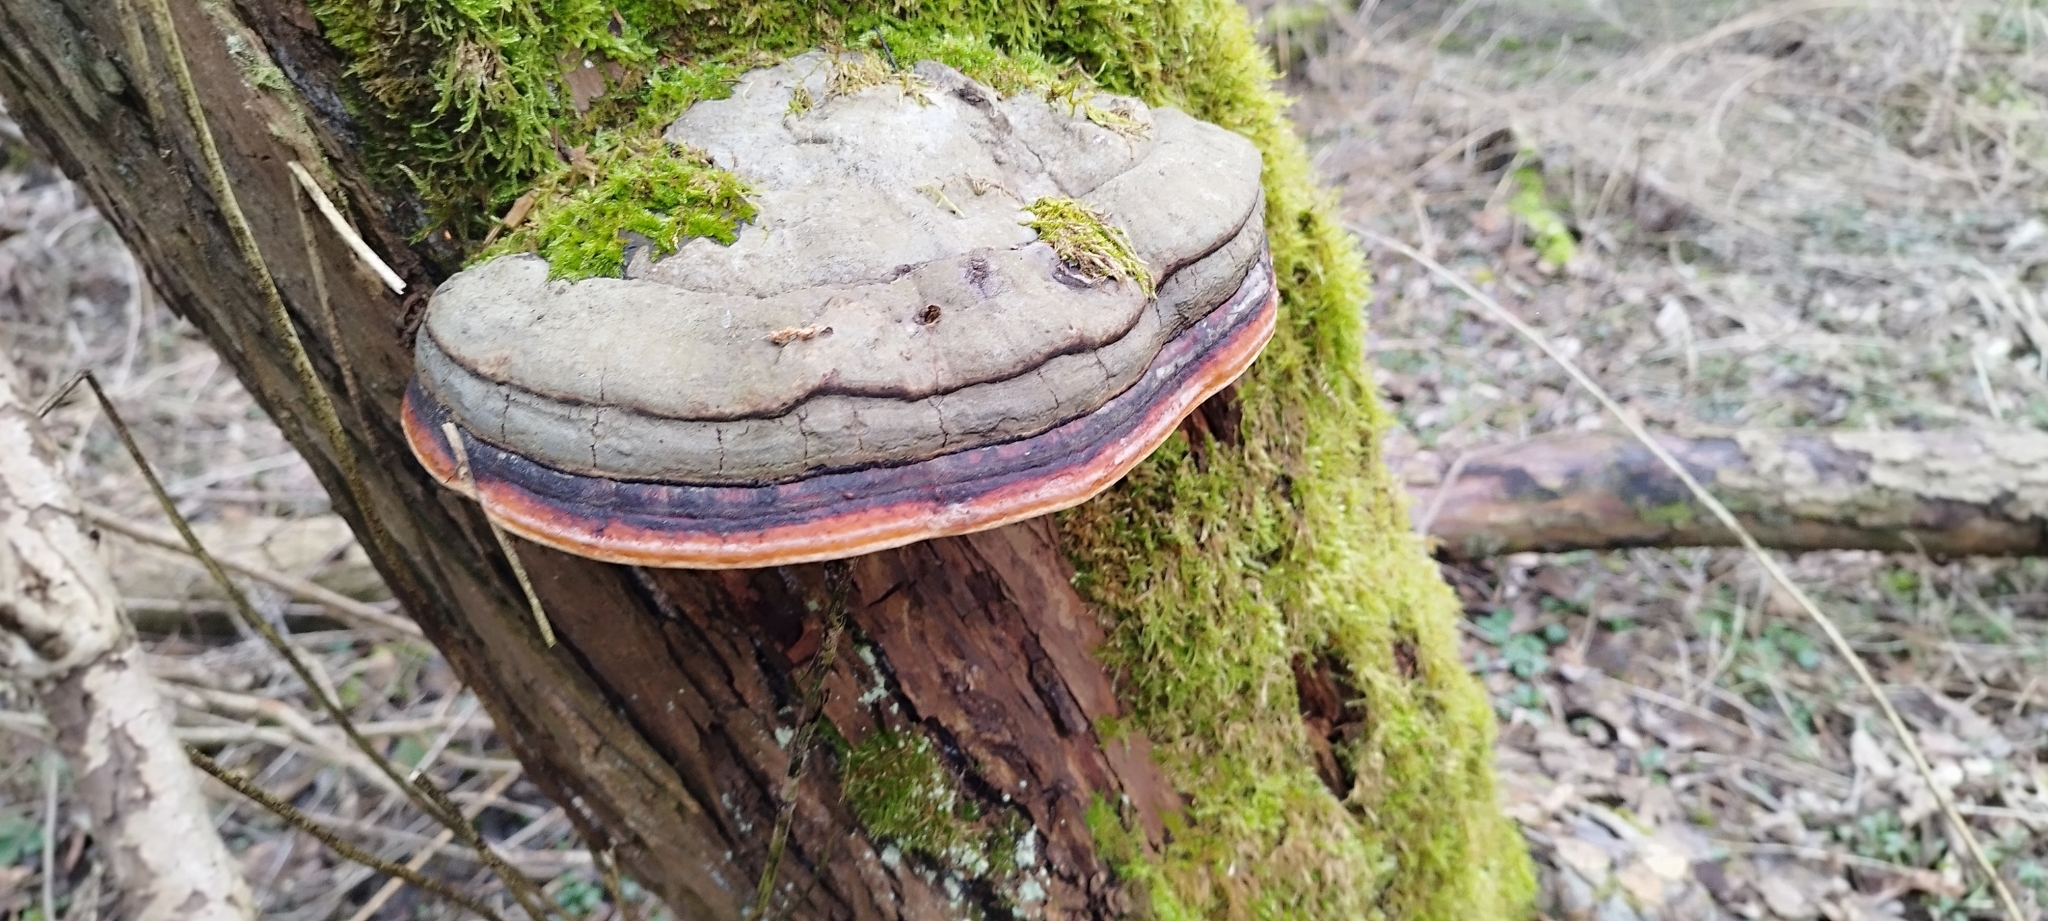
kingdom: Fungi
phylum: Basidiomycota
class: Agaricomycetes
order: Polyporales
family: Fomitopsidaceae
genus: Fomitopsis
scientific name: Fomitopsis pinicola
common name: Red-belted bracket
